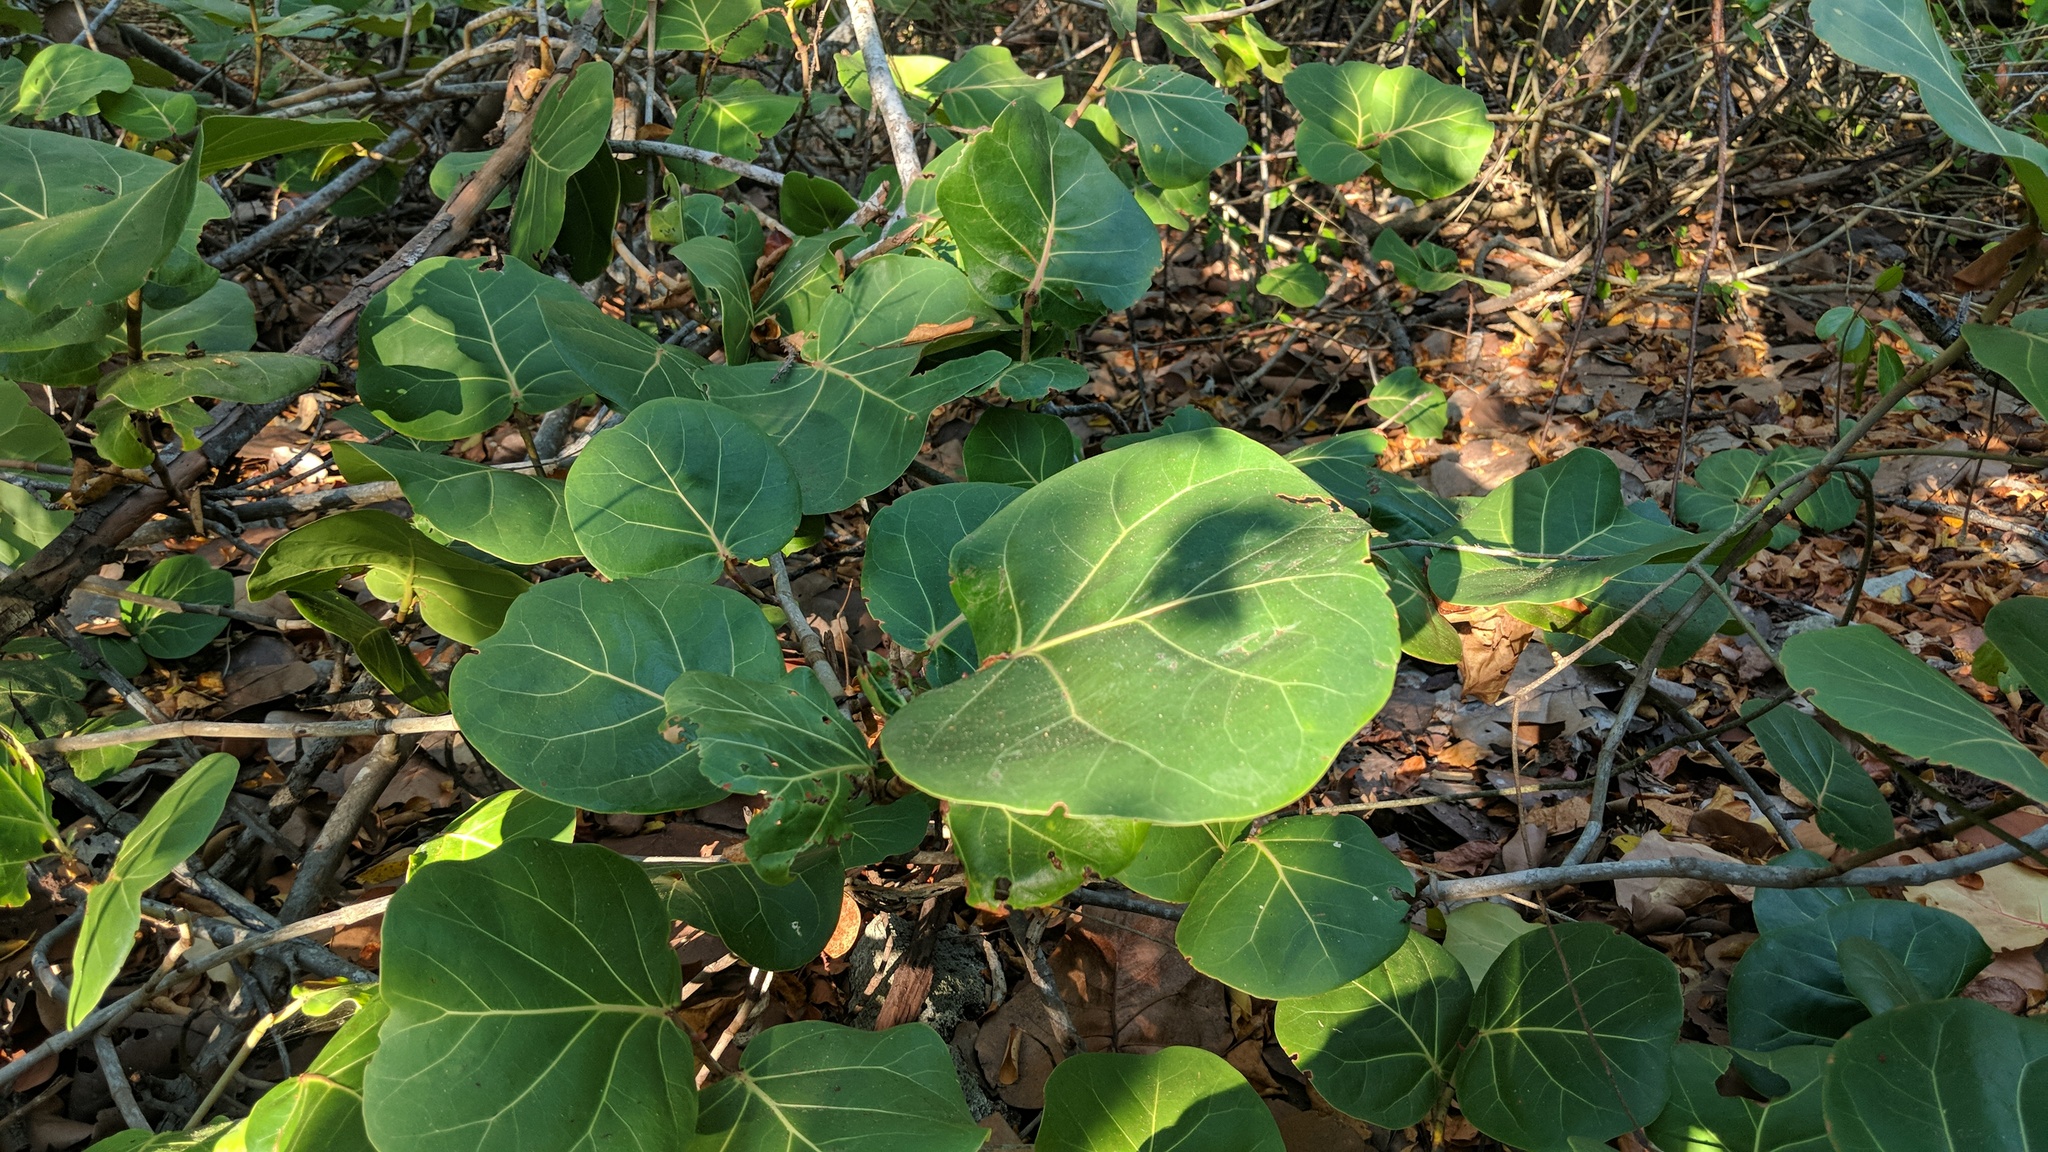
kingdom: Plantae
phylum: Tracheophyta
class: Magnoliopsida
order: Caryophyllales
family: Polygonaceae
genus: Coccoloba
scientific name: Coccoloba uvifera
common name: Seagrape
